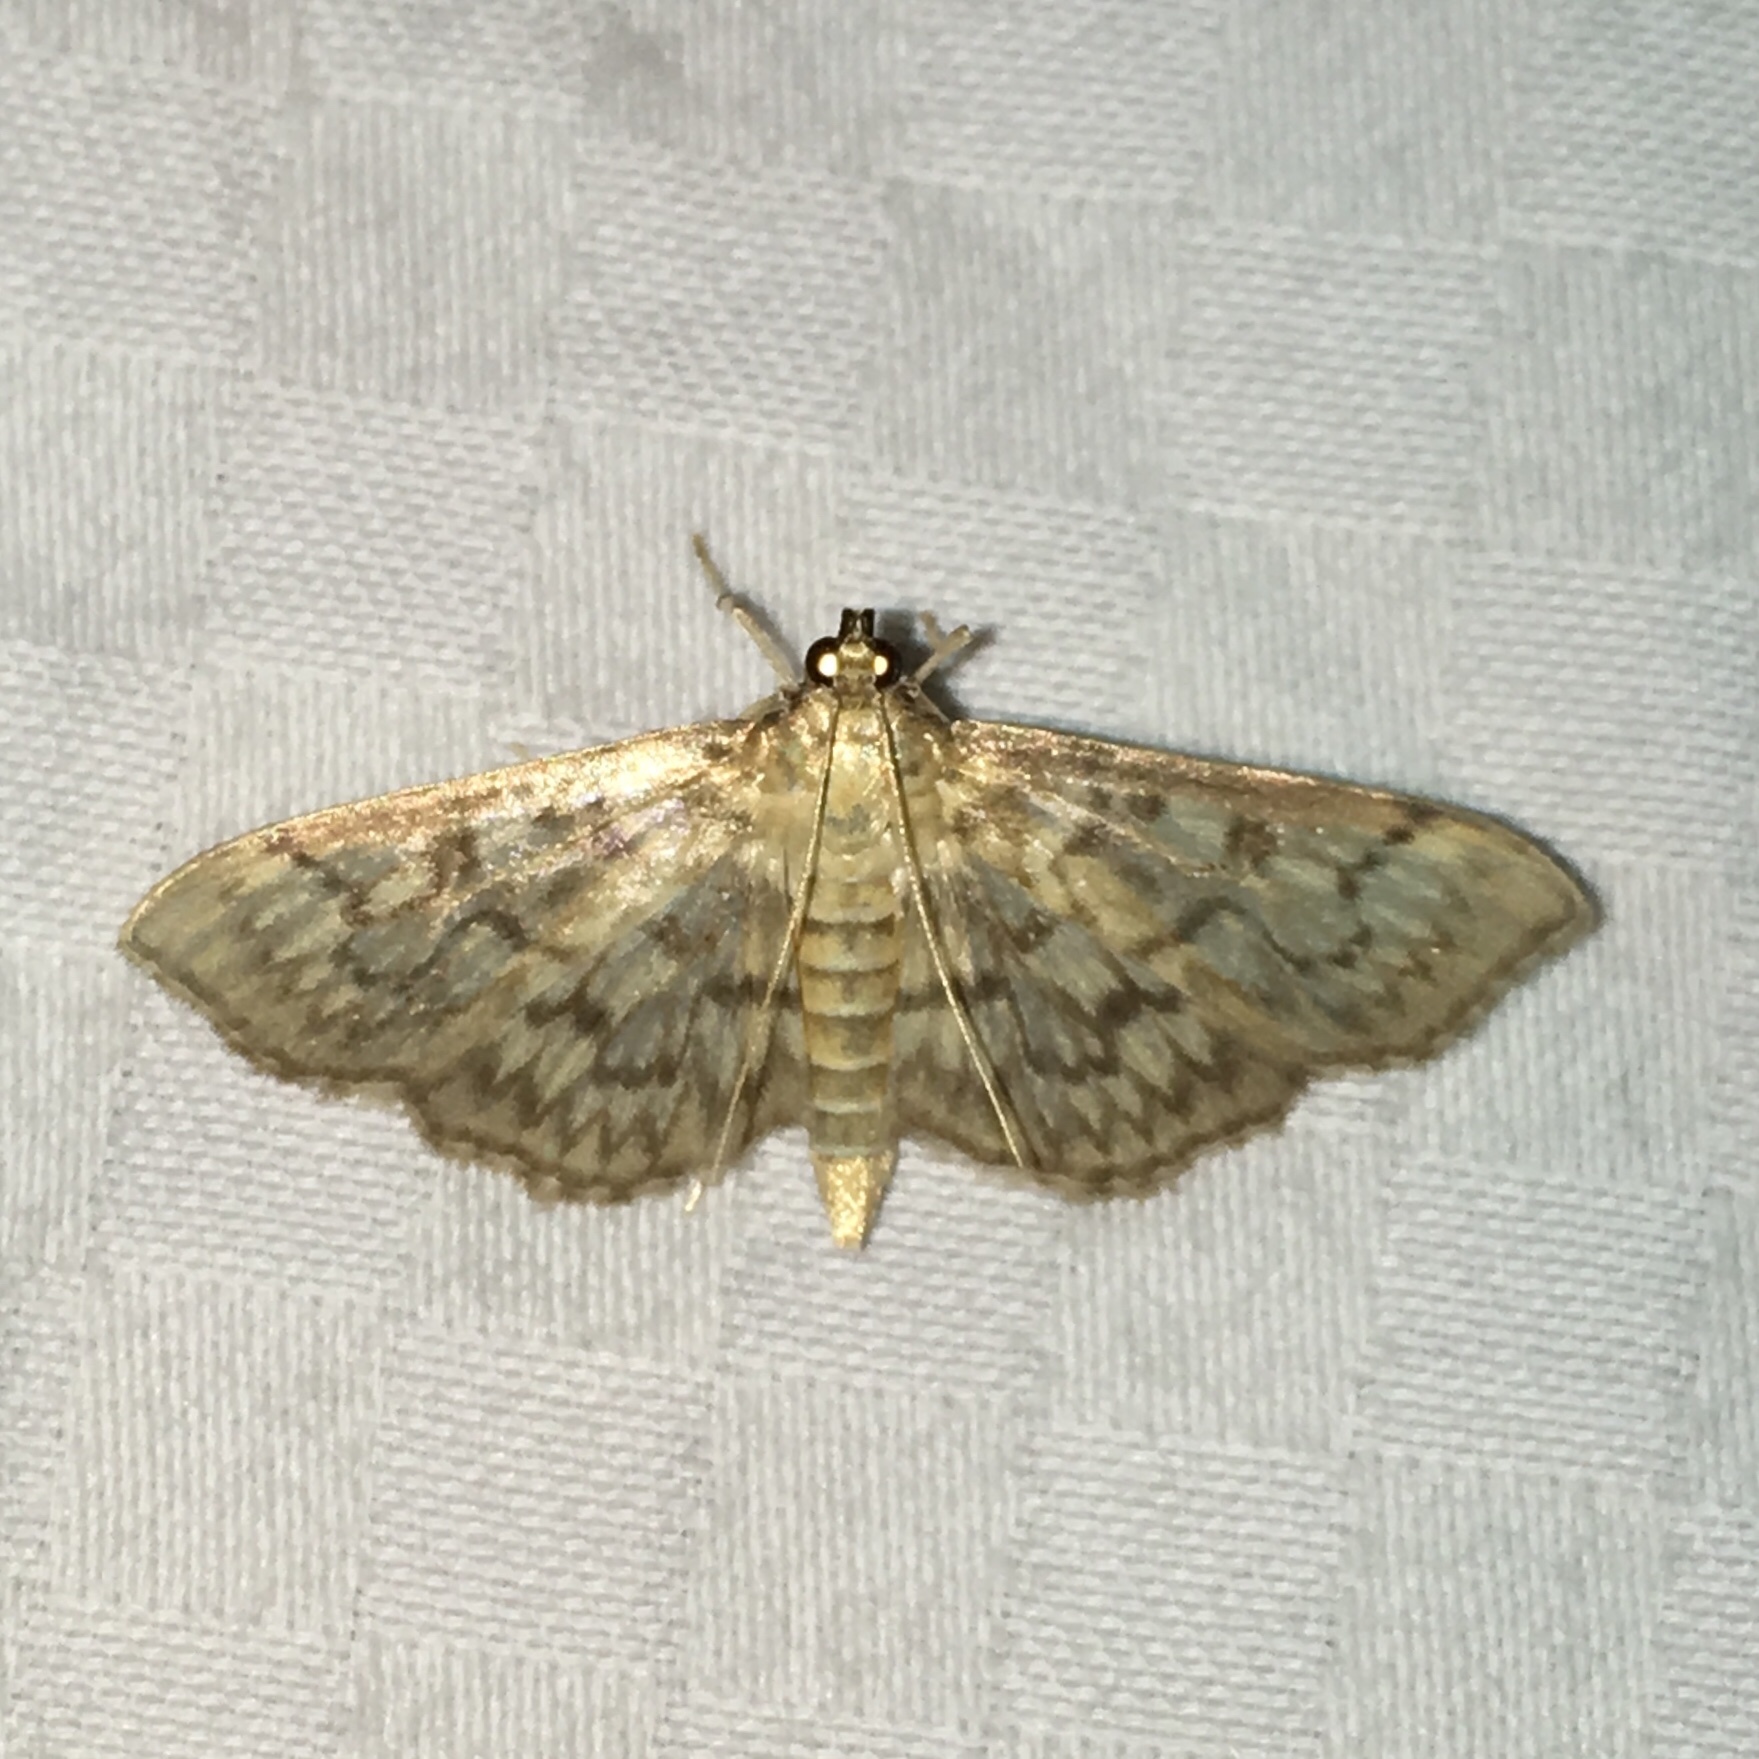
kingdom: Animalia
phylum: Arthropoda
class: Insecta
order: Lepidoptera
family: Crambidae
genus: Herpetogramma
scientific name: Herpetogramma pertextalis
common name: Bold-feathered grass moth
